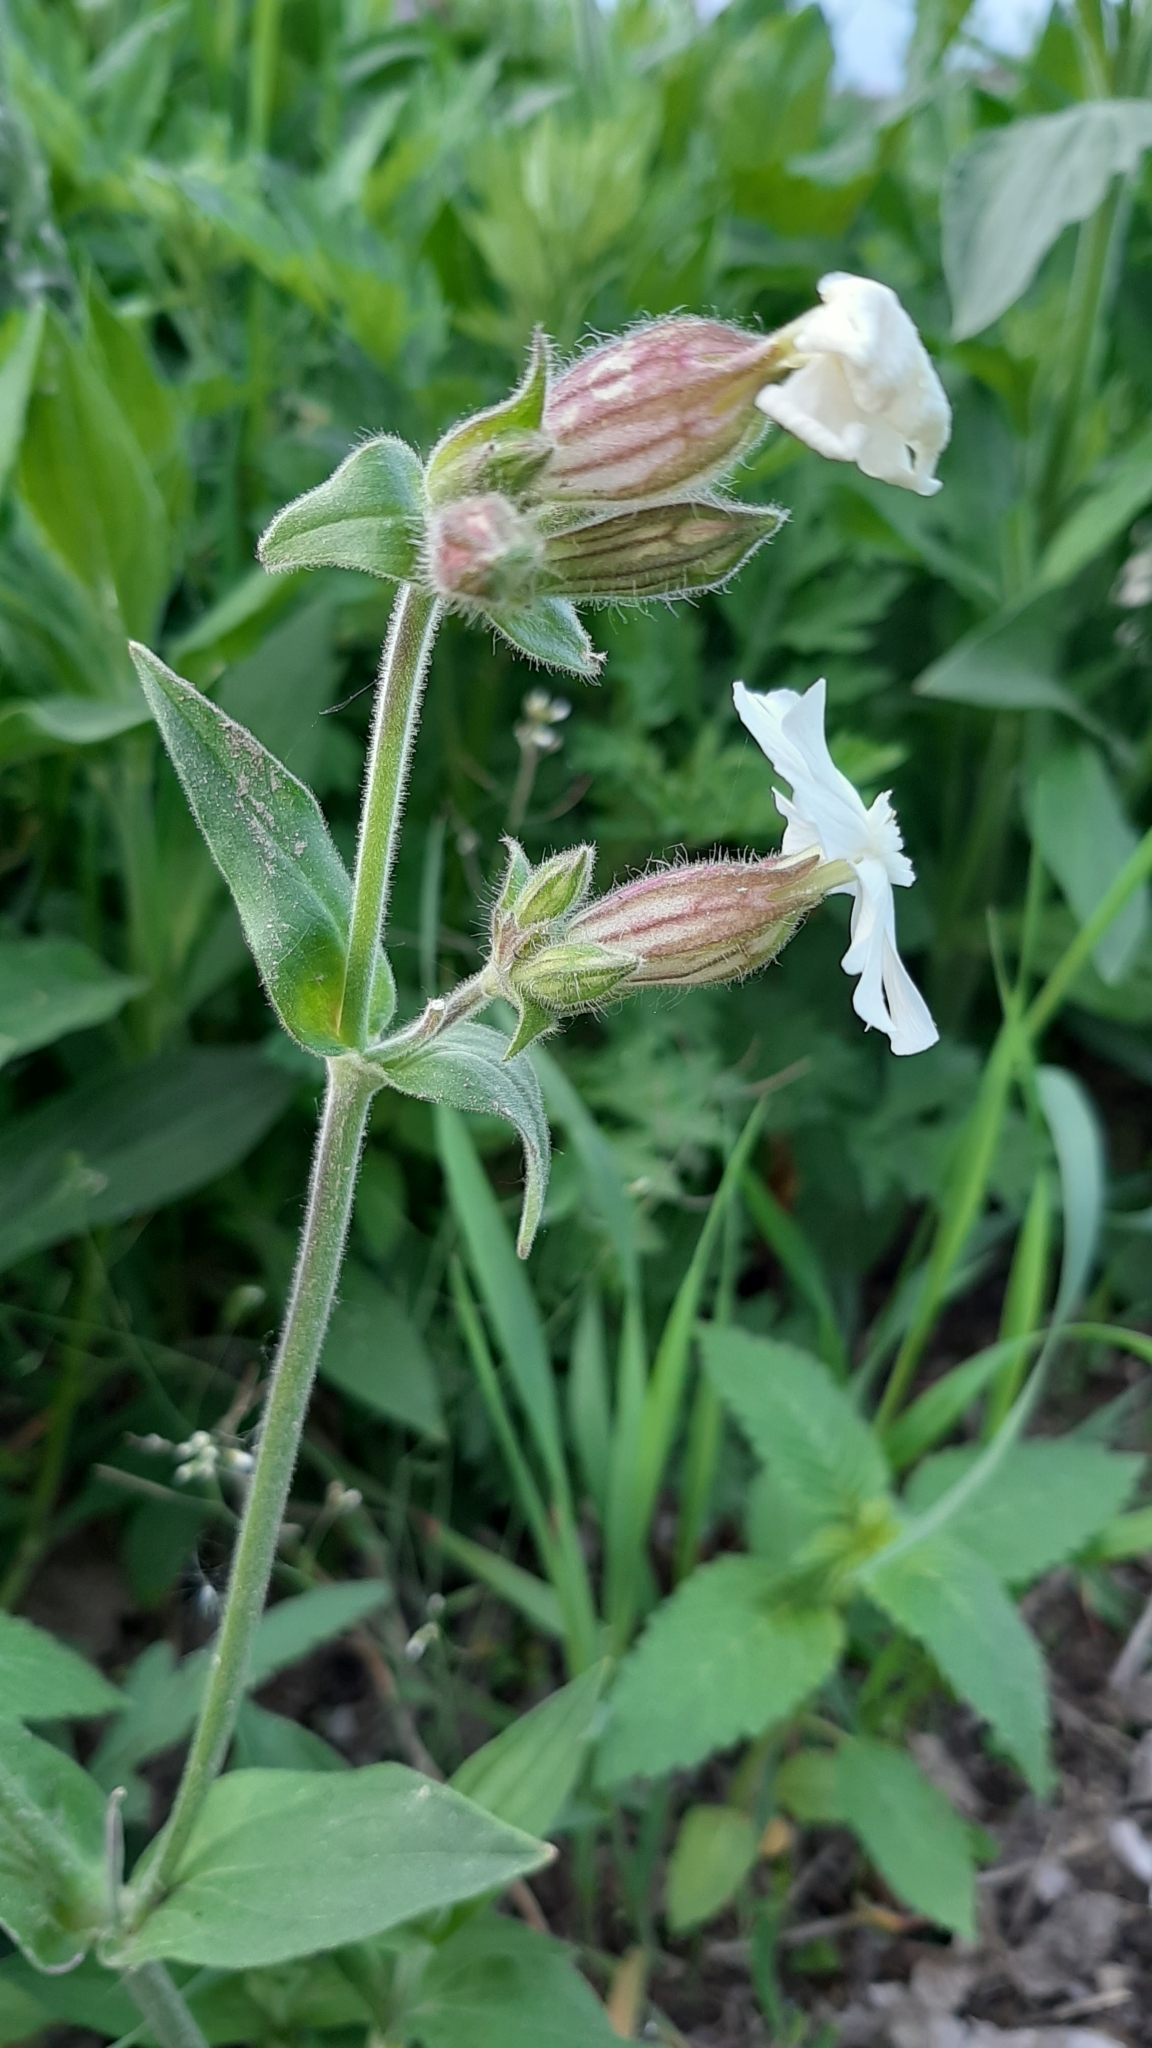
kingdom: Plantae
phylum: Tracheophyta
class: Magnoliopsida
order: Caryophyllales
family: Caryophyllaceae
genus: Silene
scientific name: Silene latifolia
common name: White campion
